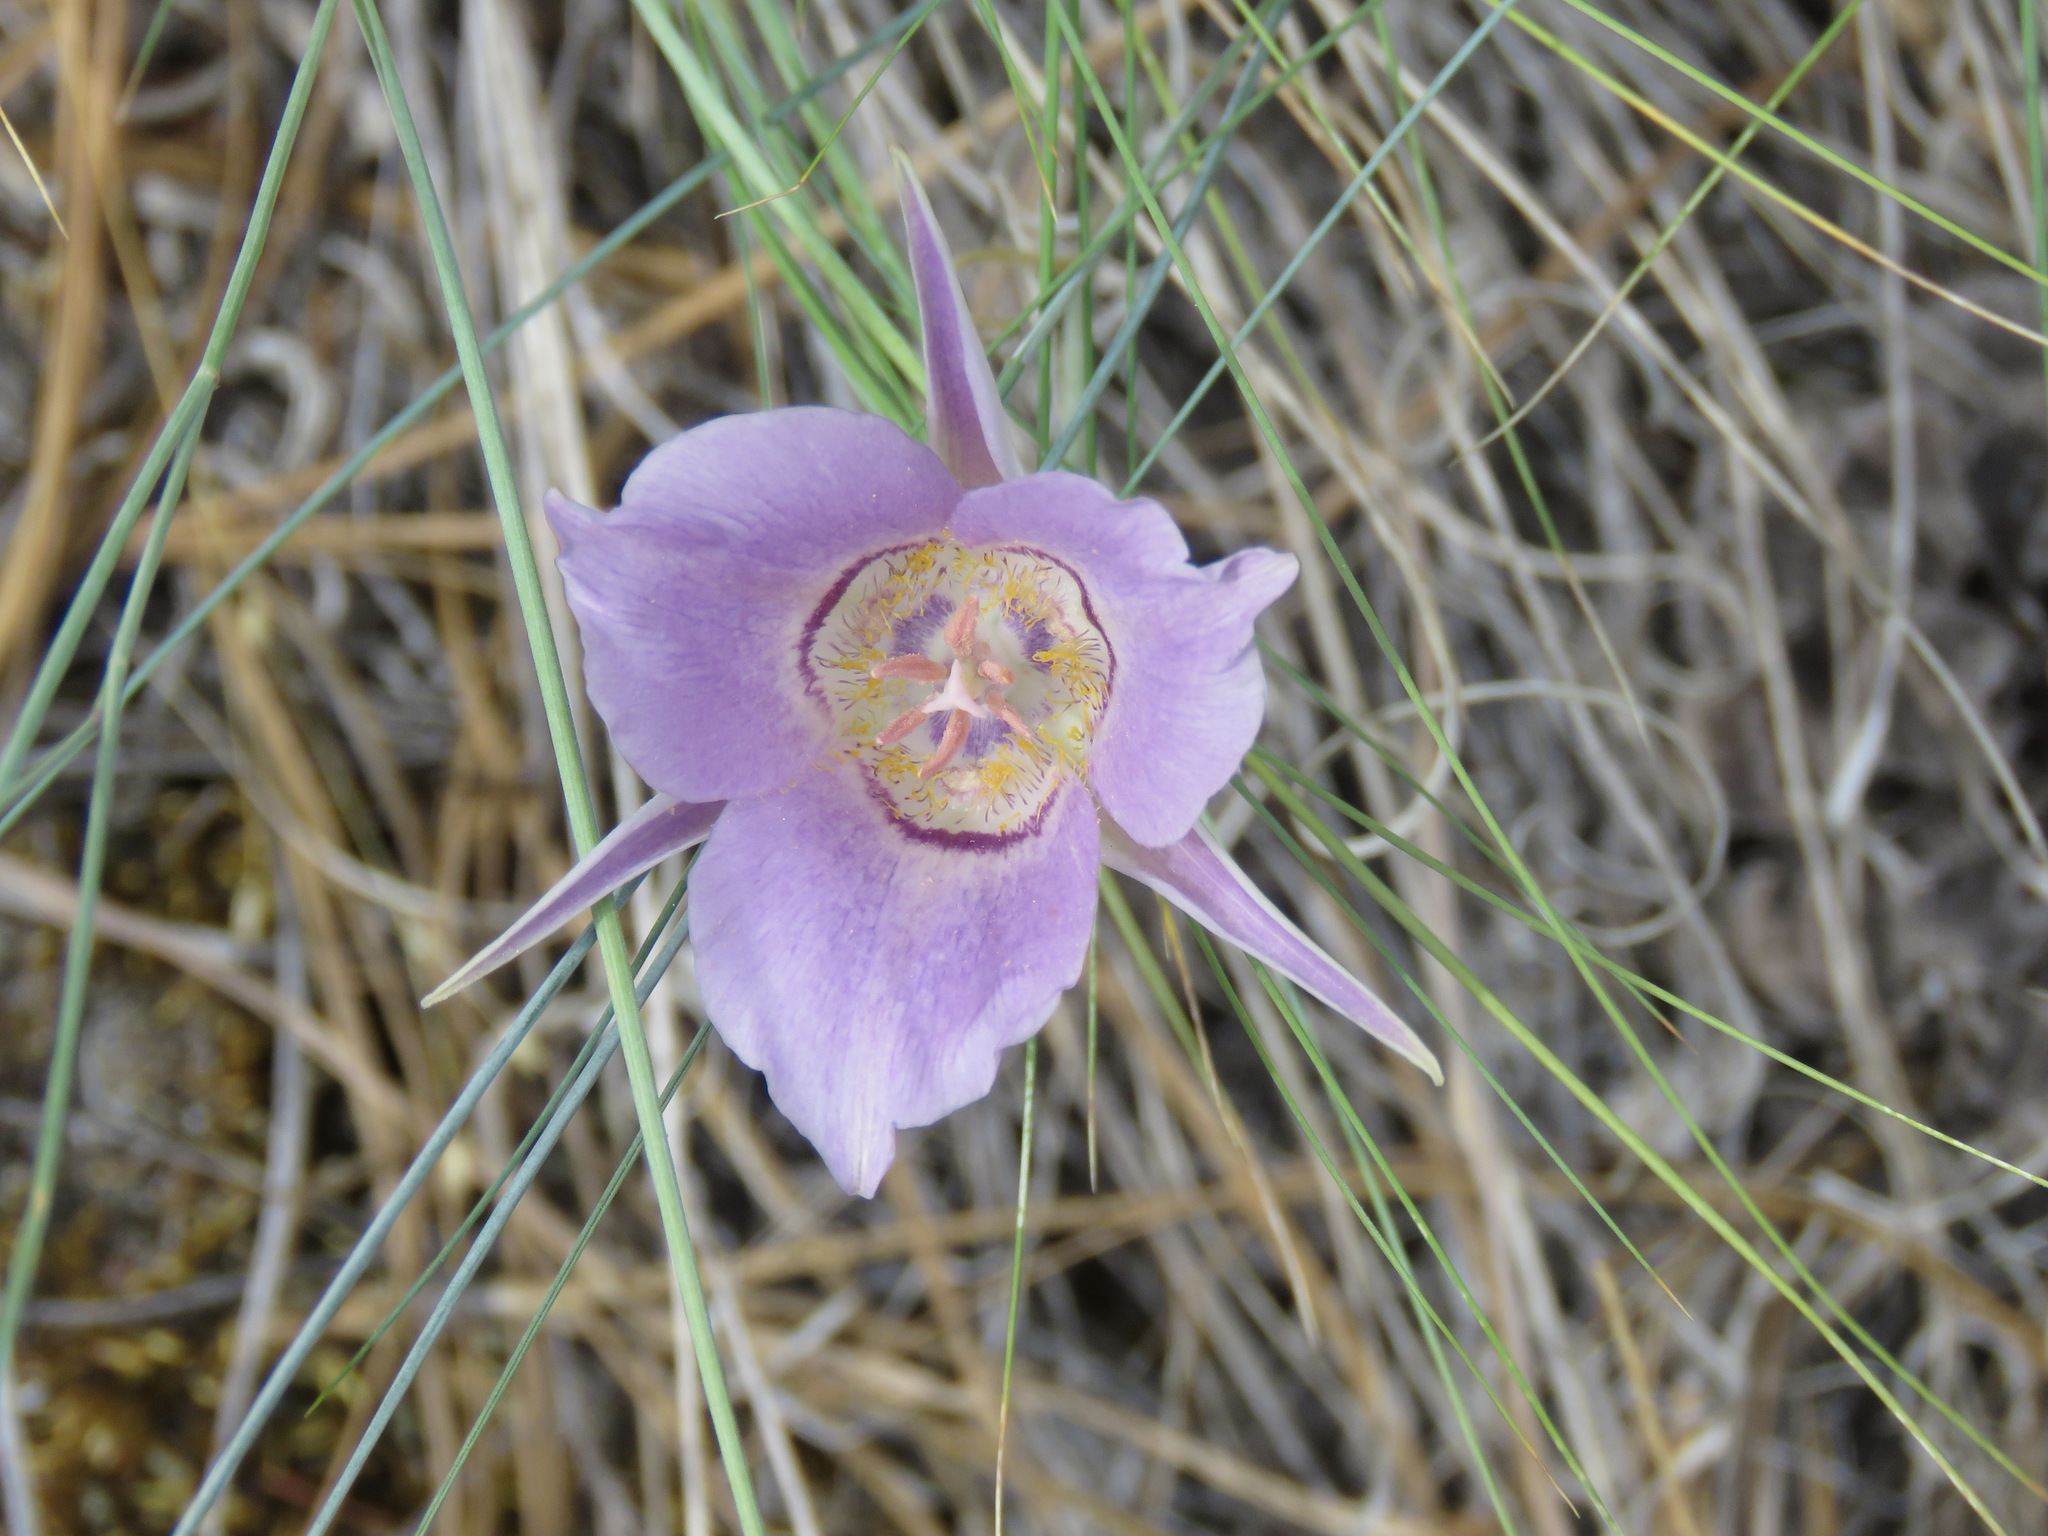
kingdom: Plantae
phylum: Tracheophyta
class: Liliopsida
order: Liliales
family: Liliaceae
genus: Calochortus
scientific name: Calochortus macrocarpus
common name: Green-band mariposa lily
